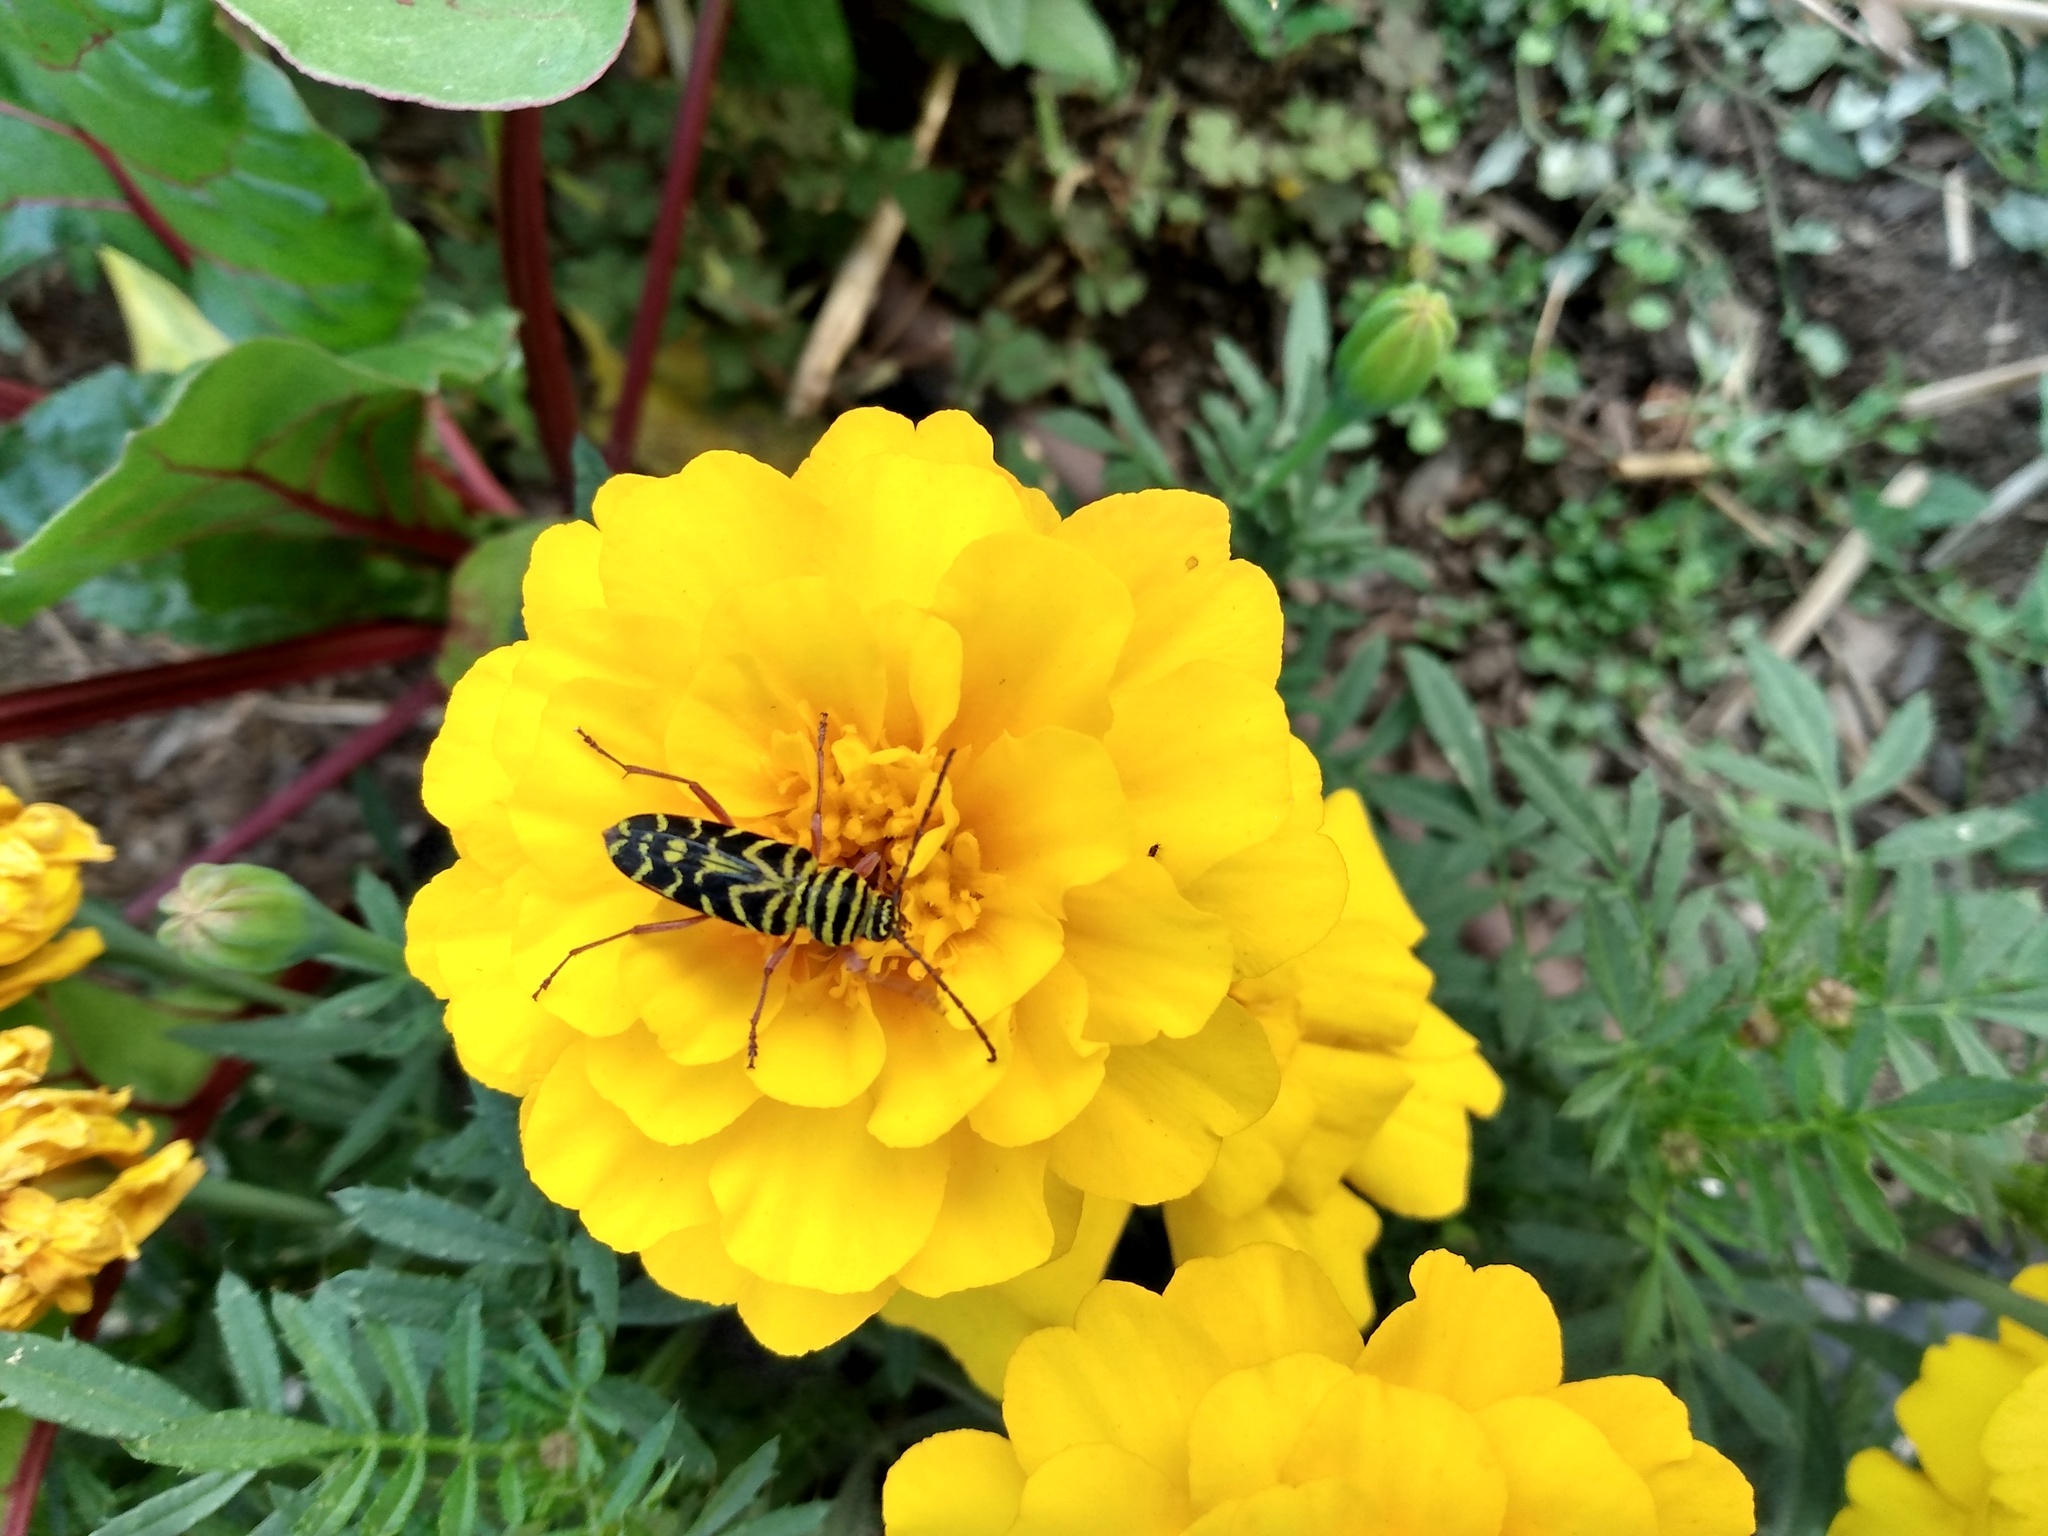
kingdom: Animalia
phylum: Arthropoda
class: Insecta
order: Coleoptera
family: Cerambycidae
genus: Megacyllene
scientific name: Megacyllene robiniae
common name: Locust borer
